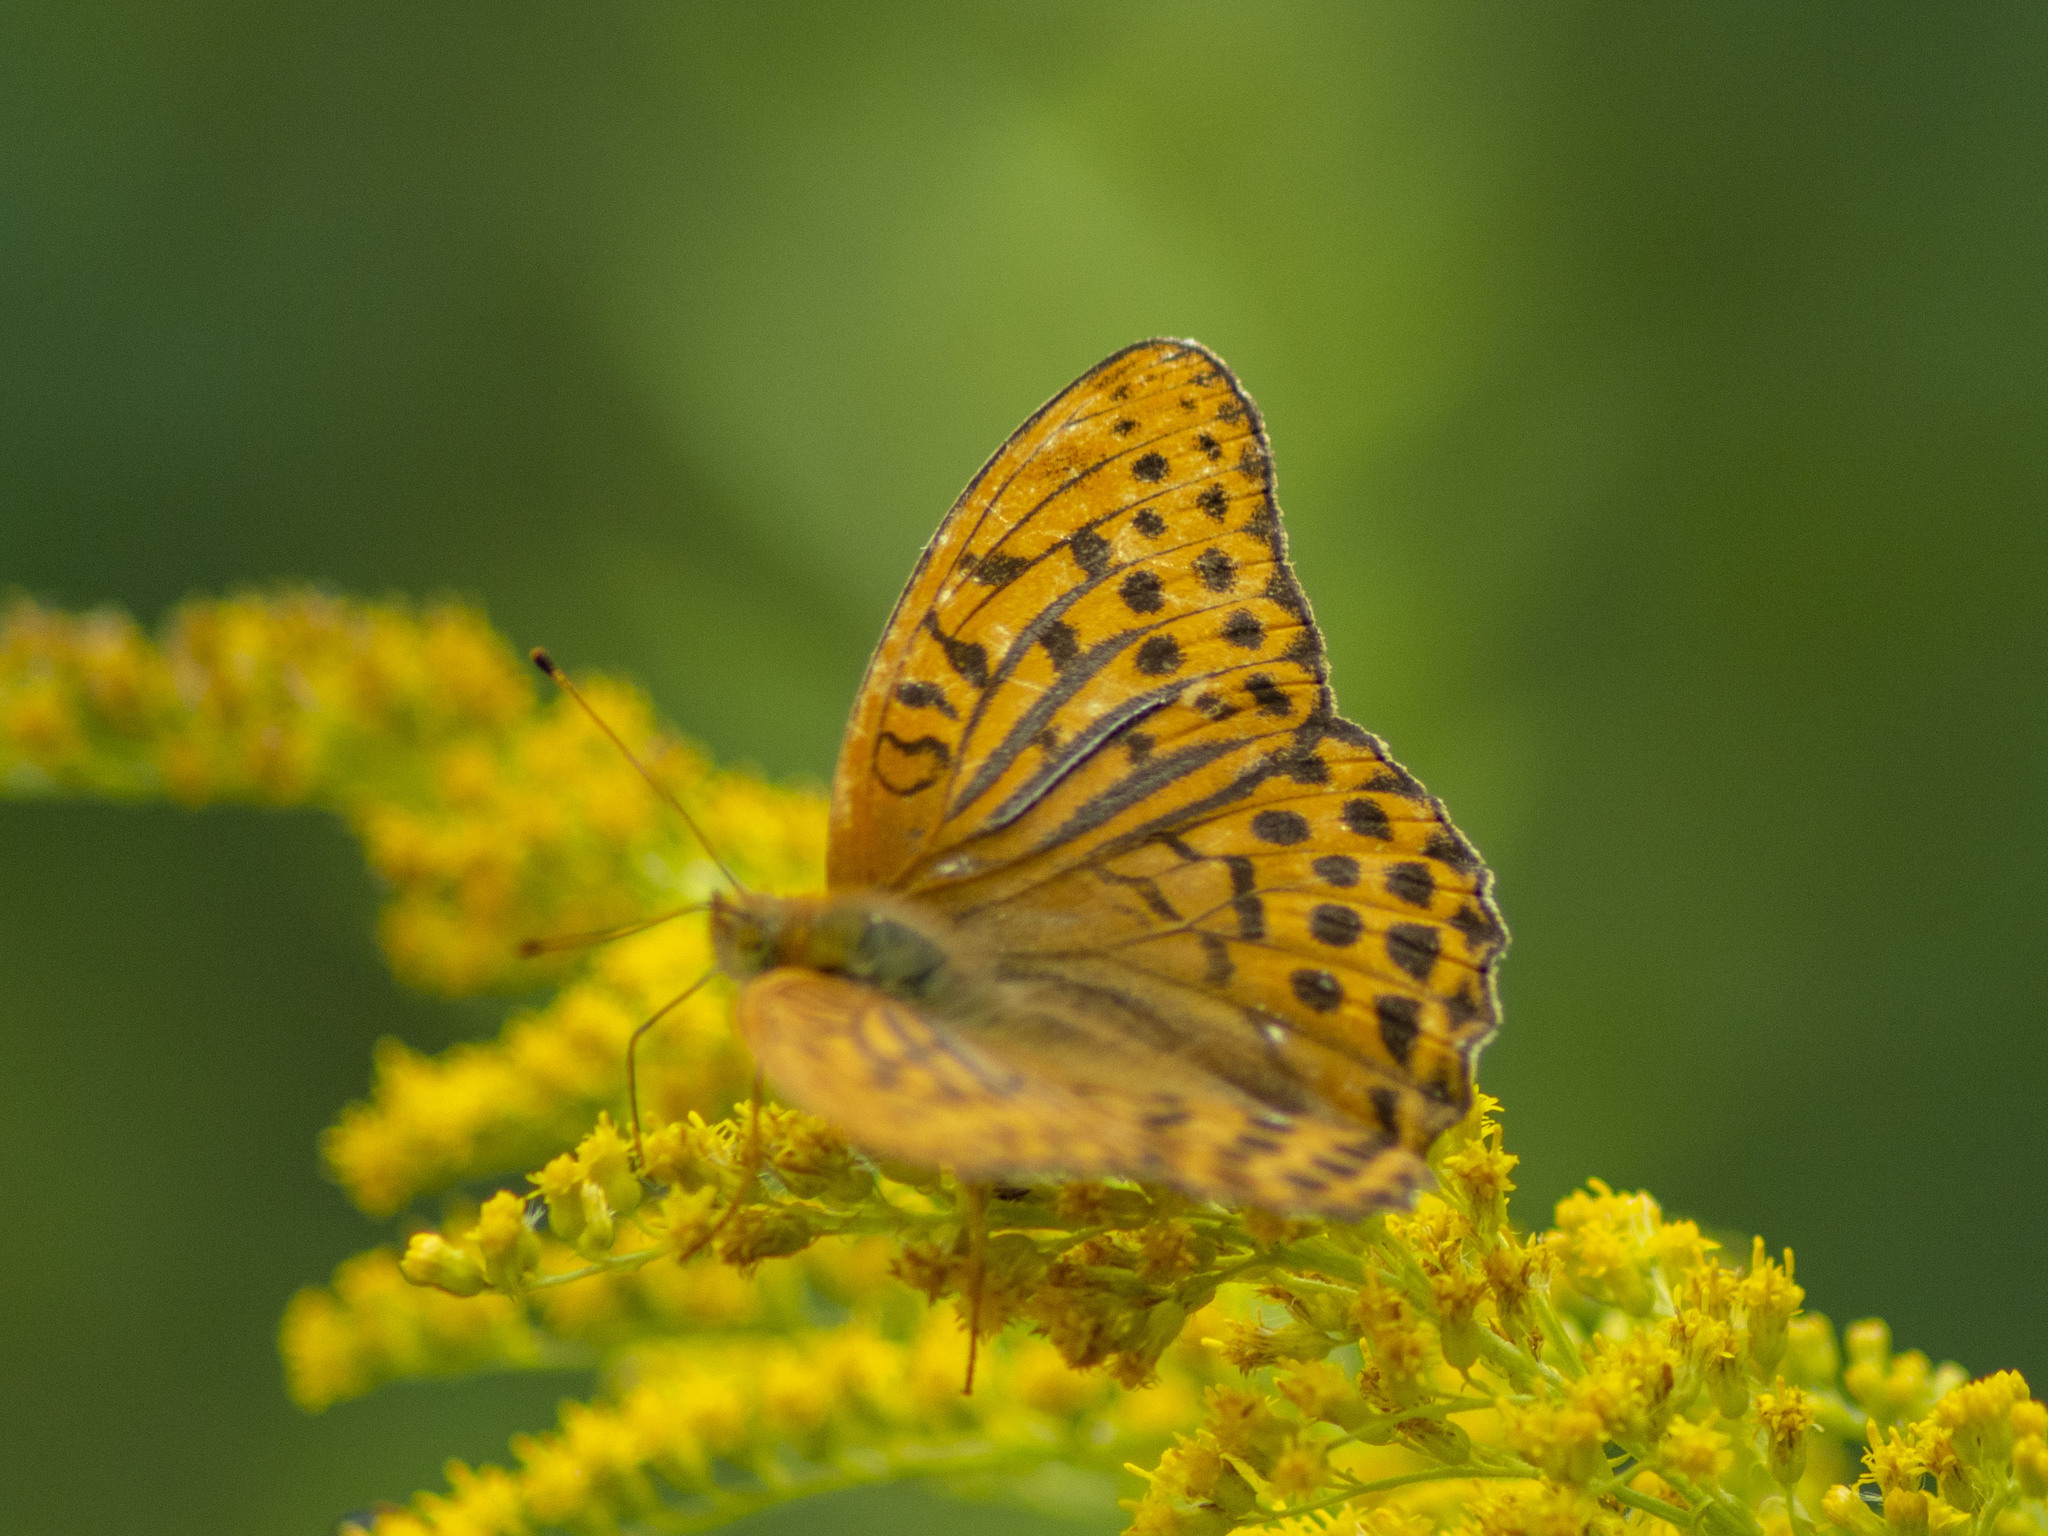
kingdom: Animalia
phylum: Arthropoda
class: Insecta
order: Lepidoptera
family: Nymphalidae
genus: Argynnis
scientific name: Argynnis paphia
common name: Silver-washed fritillary
